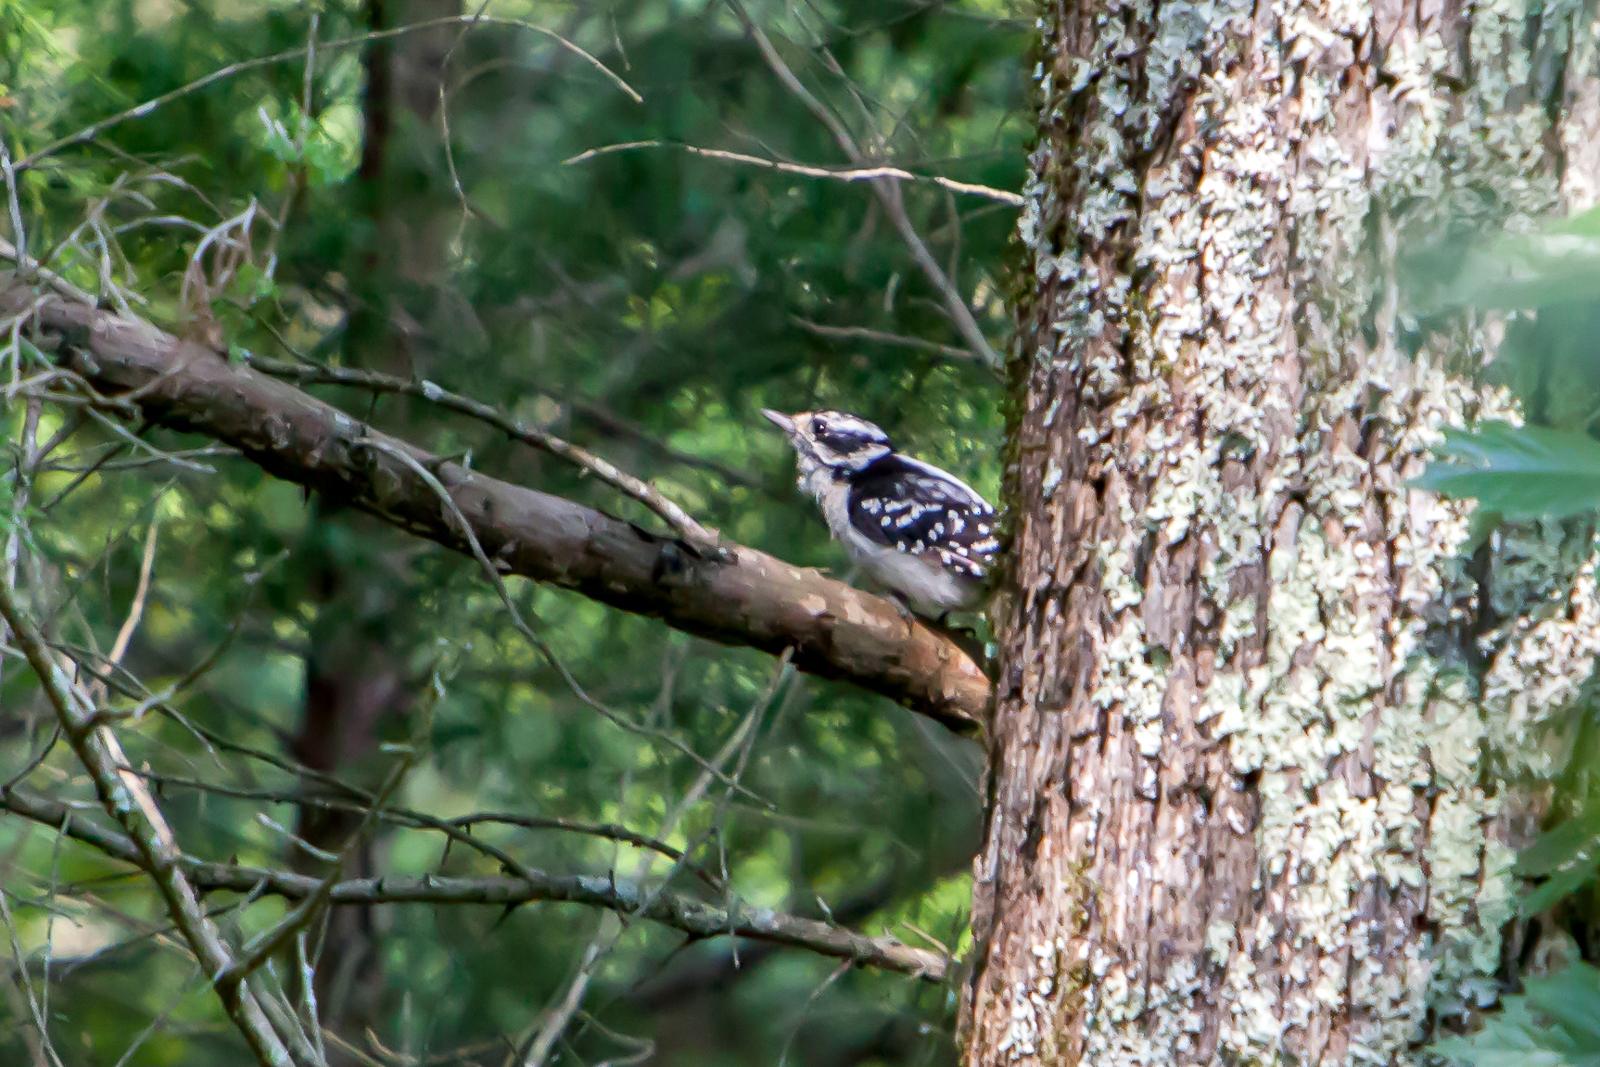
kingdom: Animalia
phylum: Chordata
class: Aves
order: Piciformes
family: Picidae
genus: Dryobates
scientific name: Dryobates pubescens
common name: Downy woodpecker
